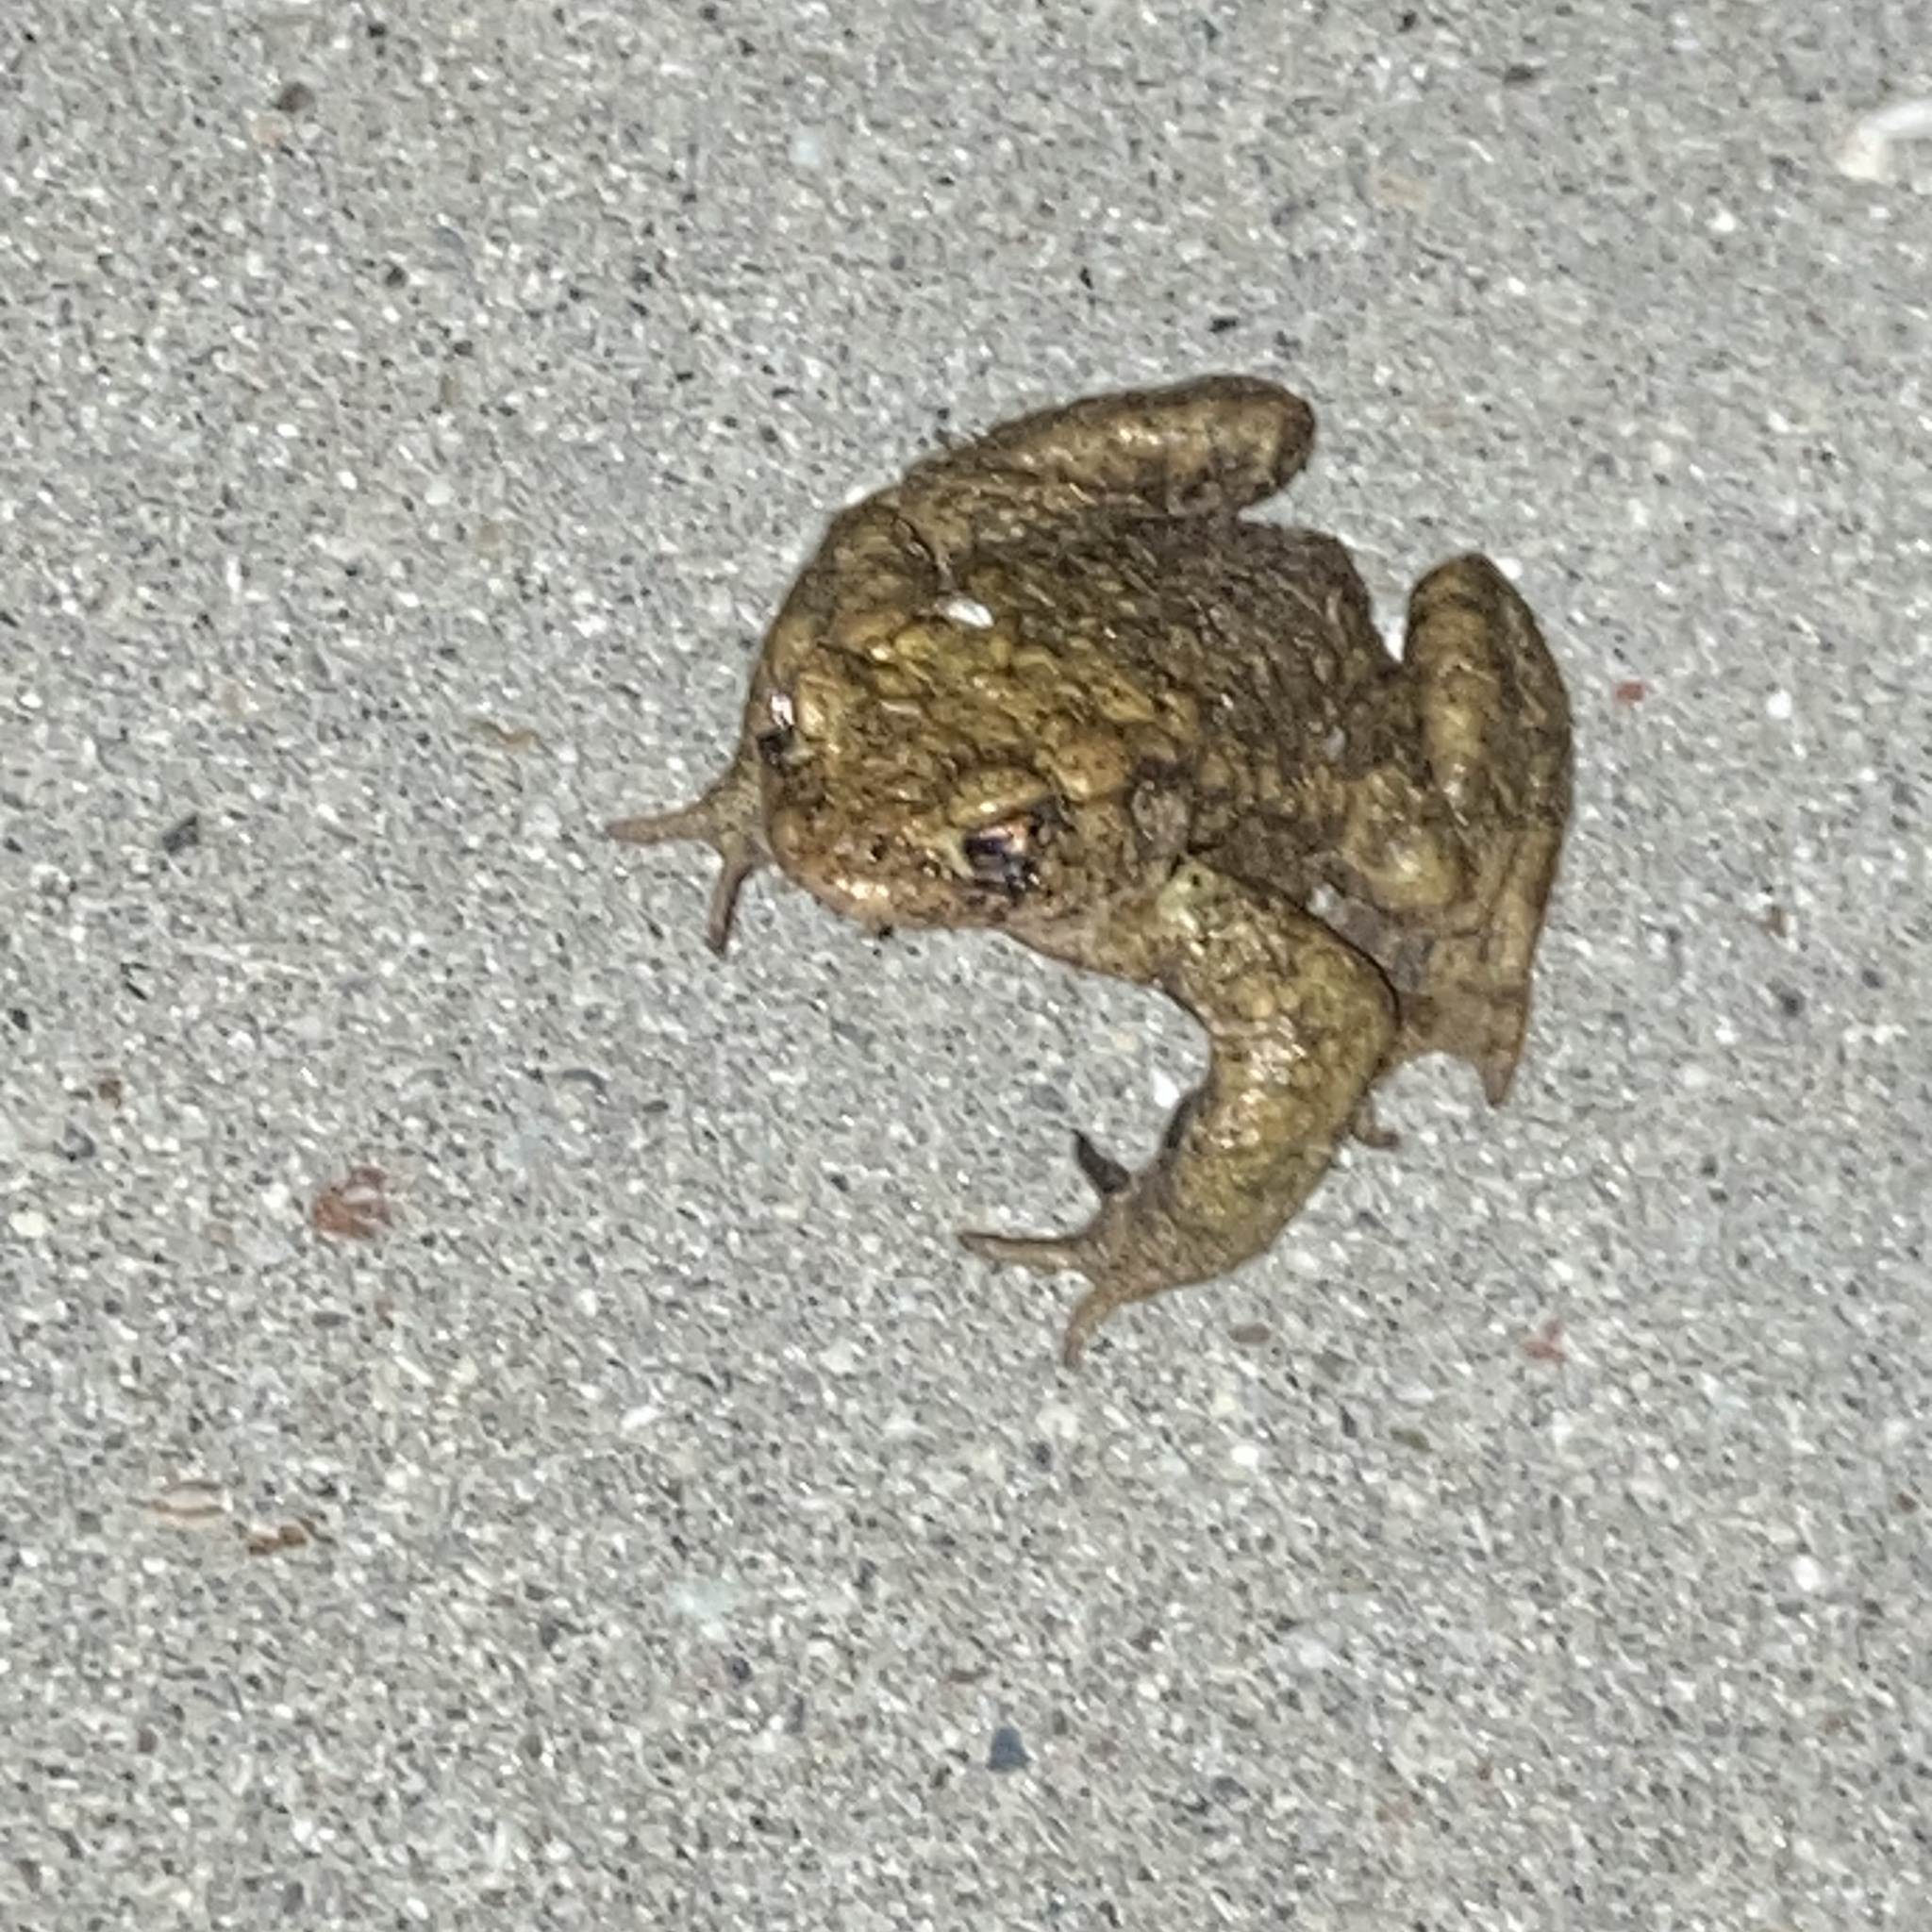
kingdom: Animalia
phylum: Chordata
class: Amphibia
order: Anura
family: Bufonidae
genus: Bufo
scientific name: Bufo bufo
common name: Common toad
